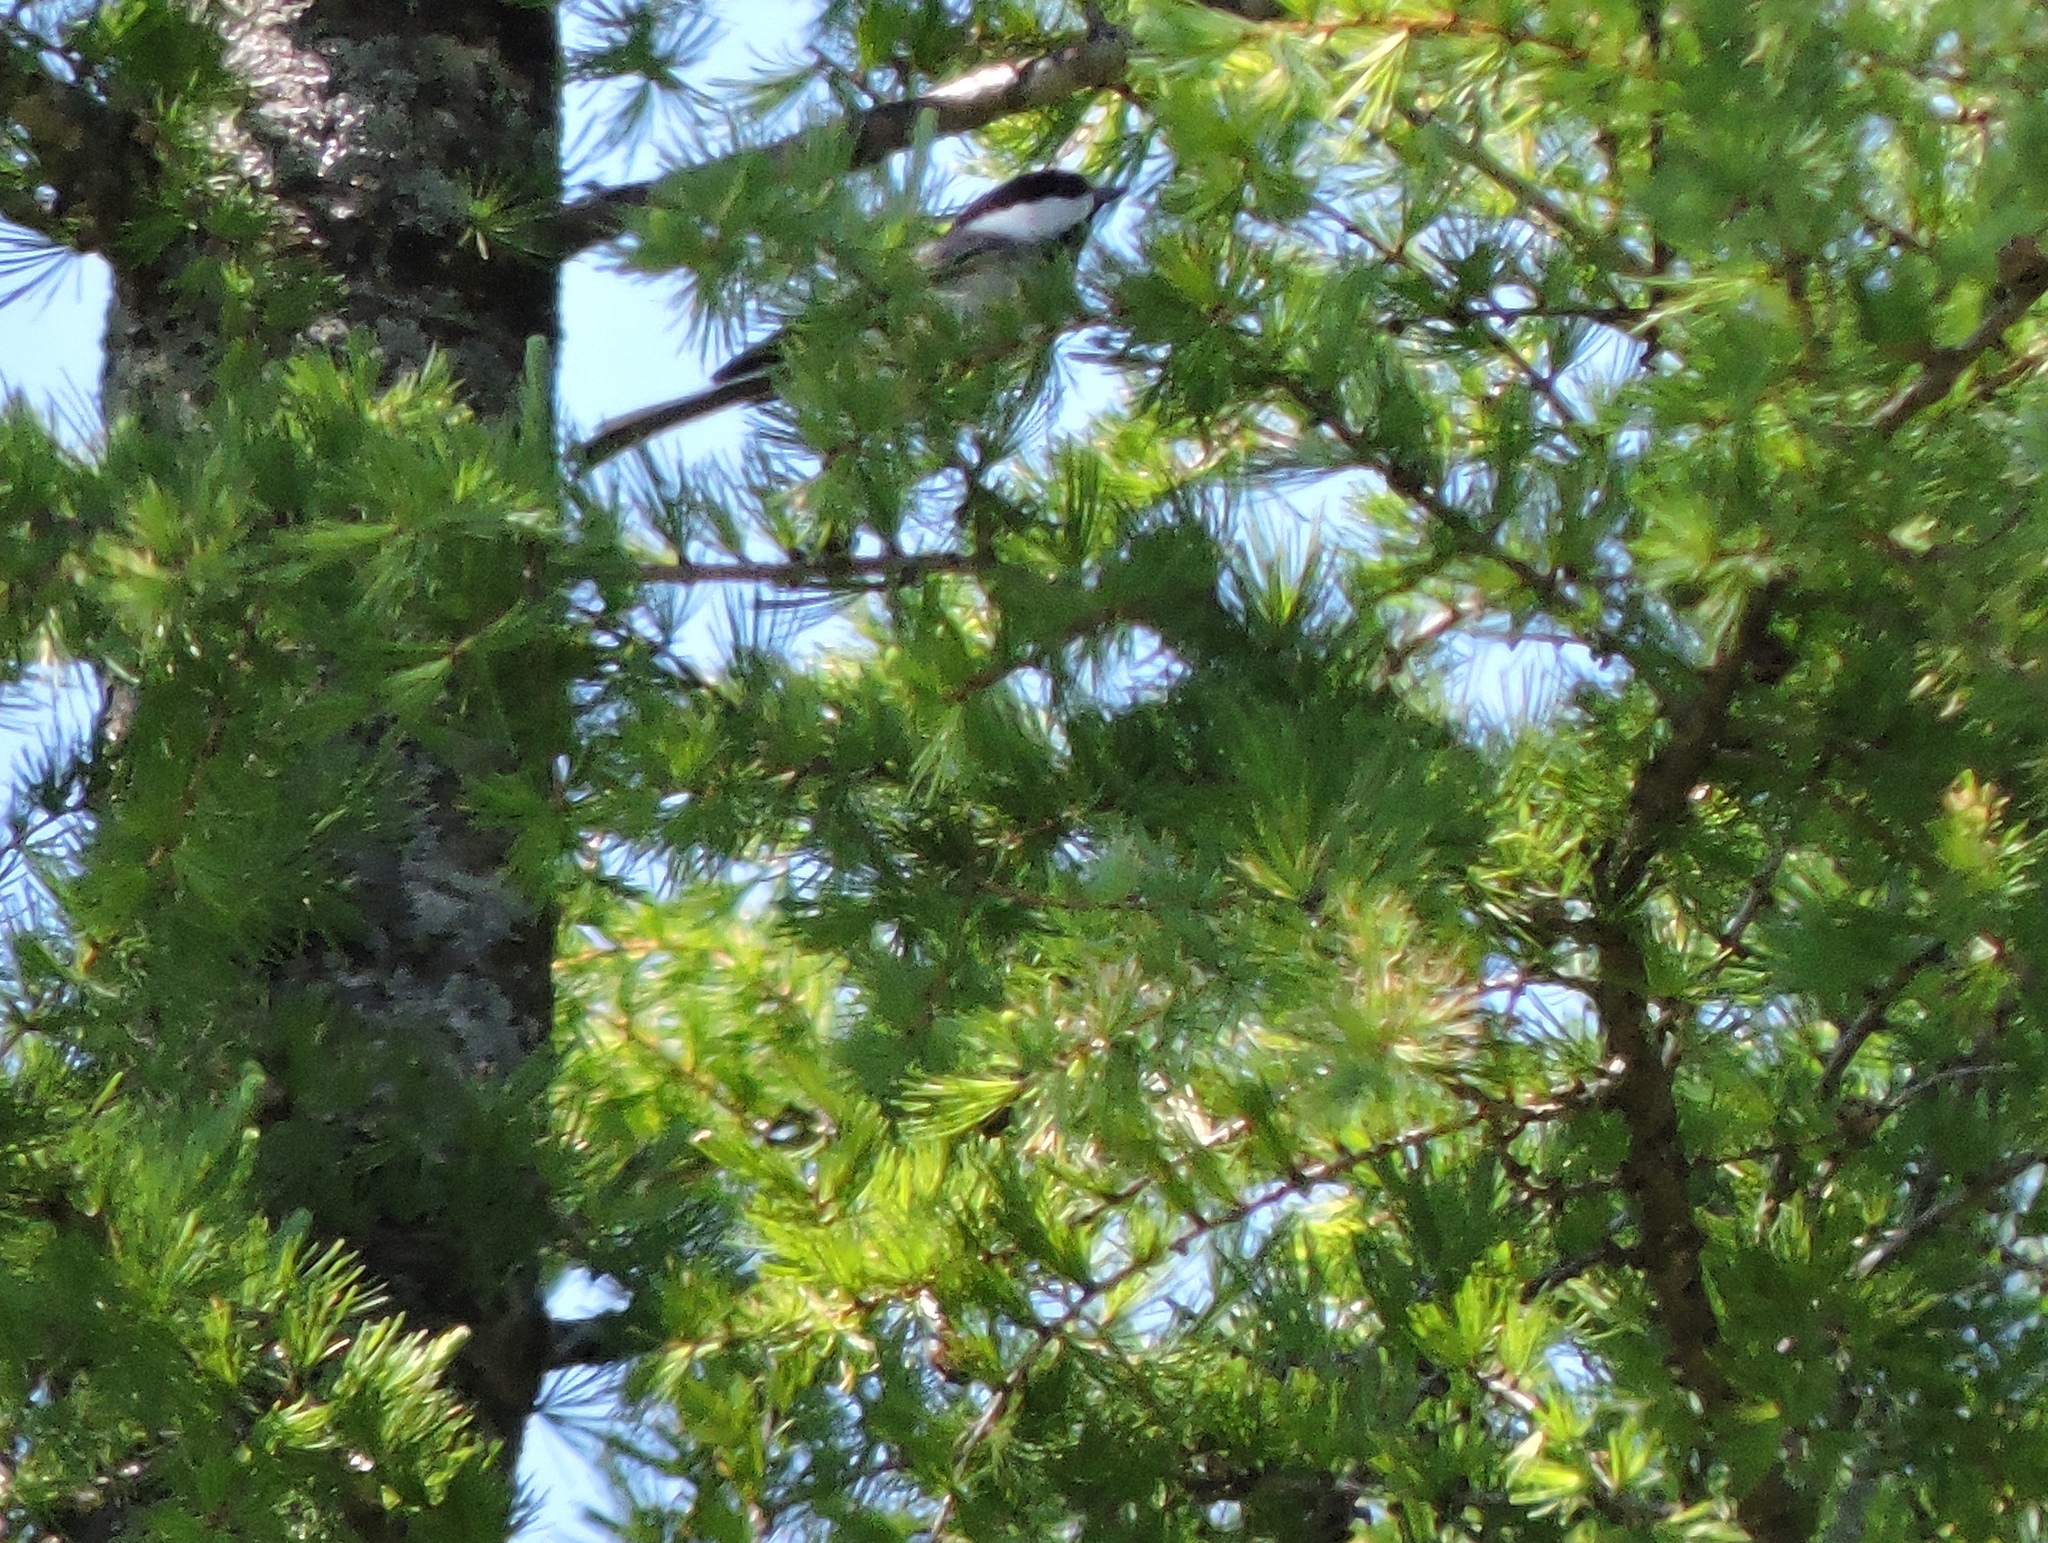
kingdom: Animalia
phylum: Chordata
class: Aves
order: Passeriformes
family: Paridae
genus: Poecile
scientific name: Poecile atricapillus
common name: Black-capped chickadee
